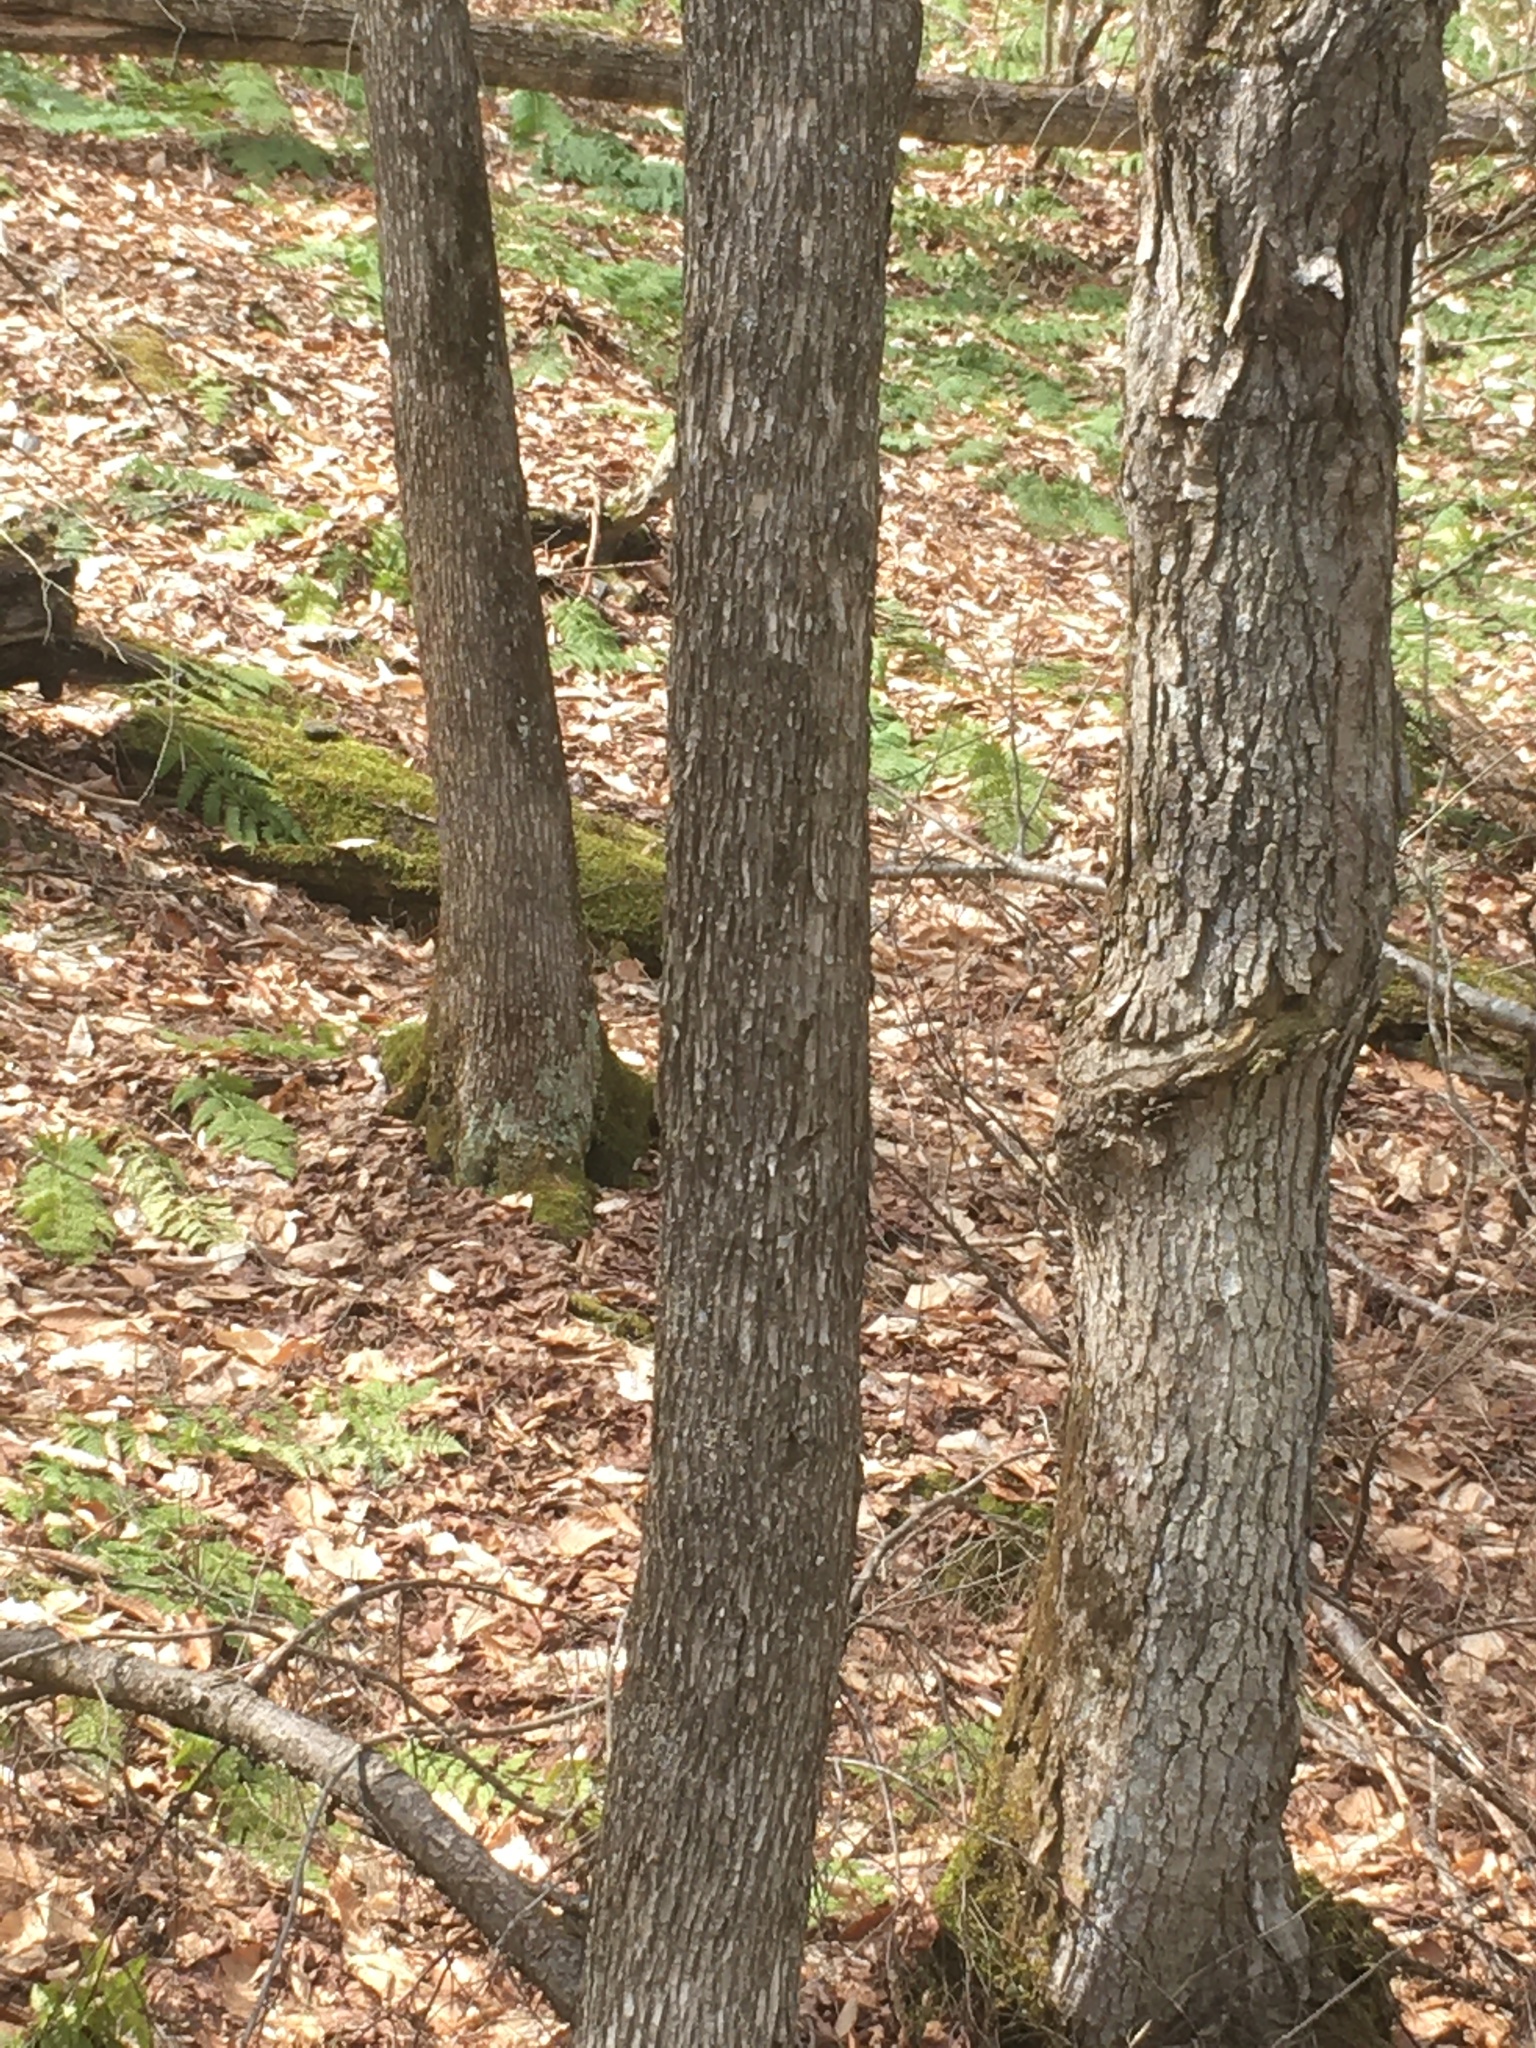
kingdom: Plantae
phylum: Tracheophyta
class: Magnoliopsida
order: Fagales
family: Betulaceae
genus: Ostrya
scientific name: Ostrya virginiana
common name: Ironwood
